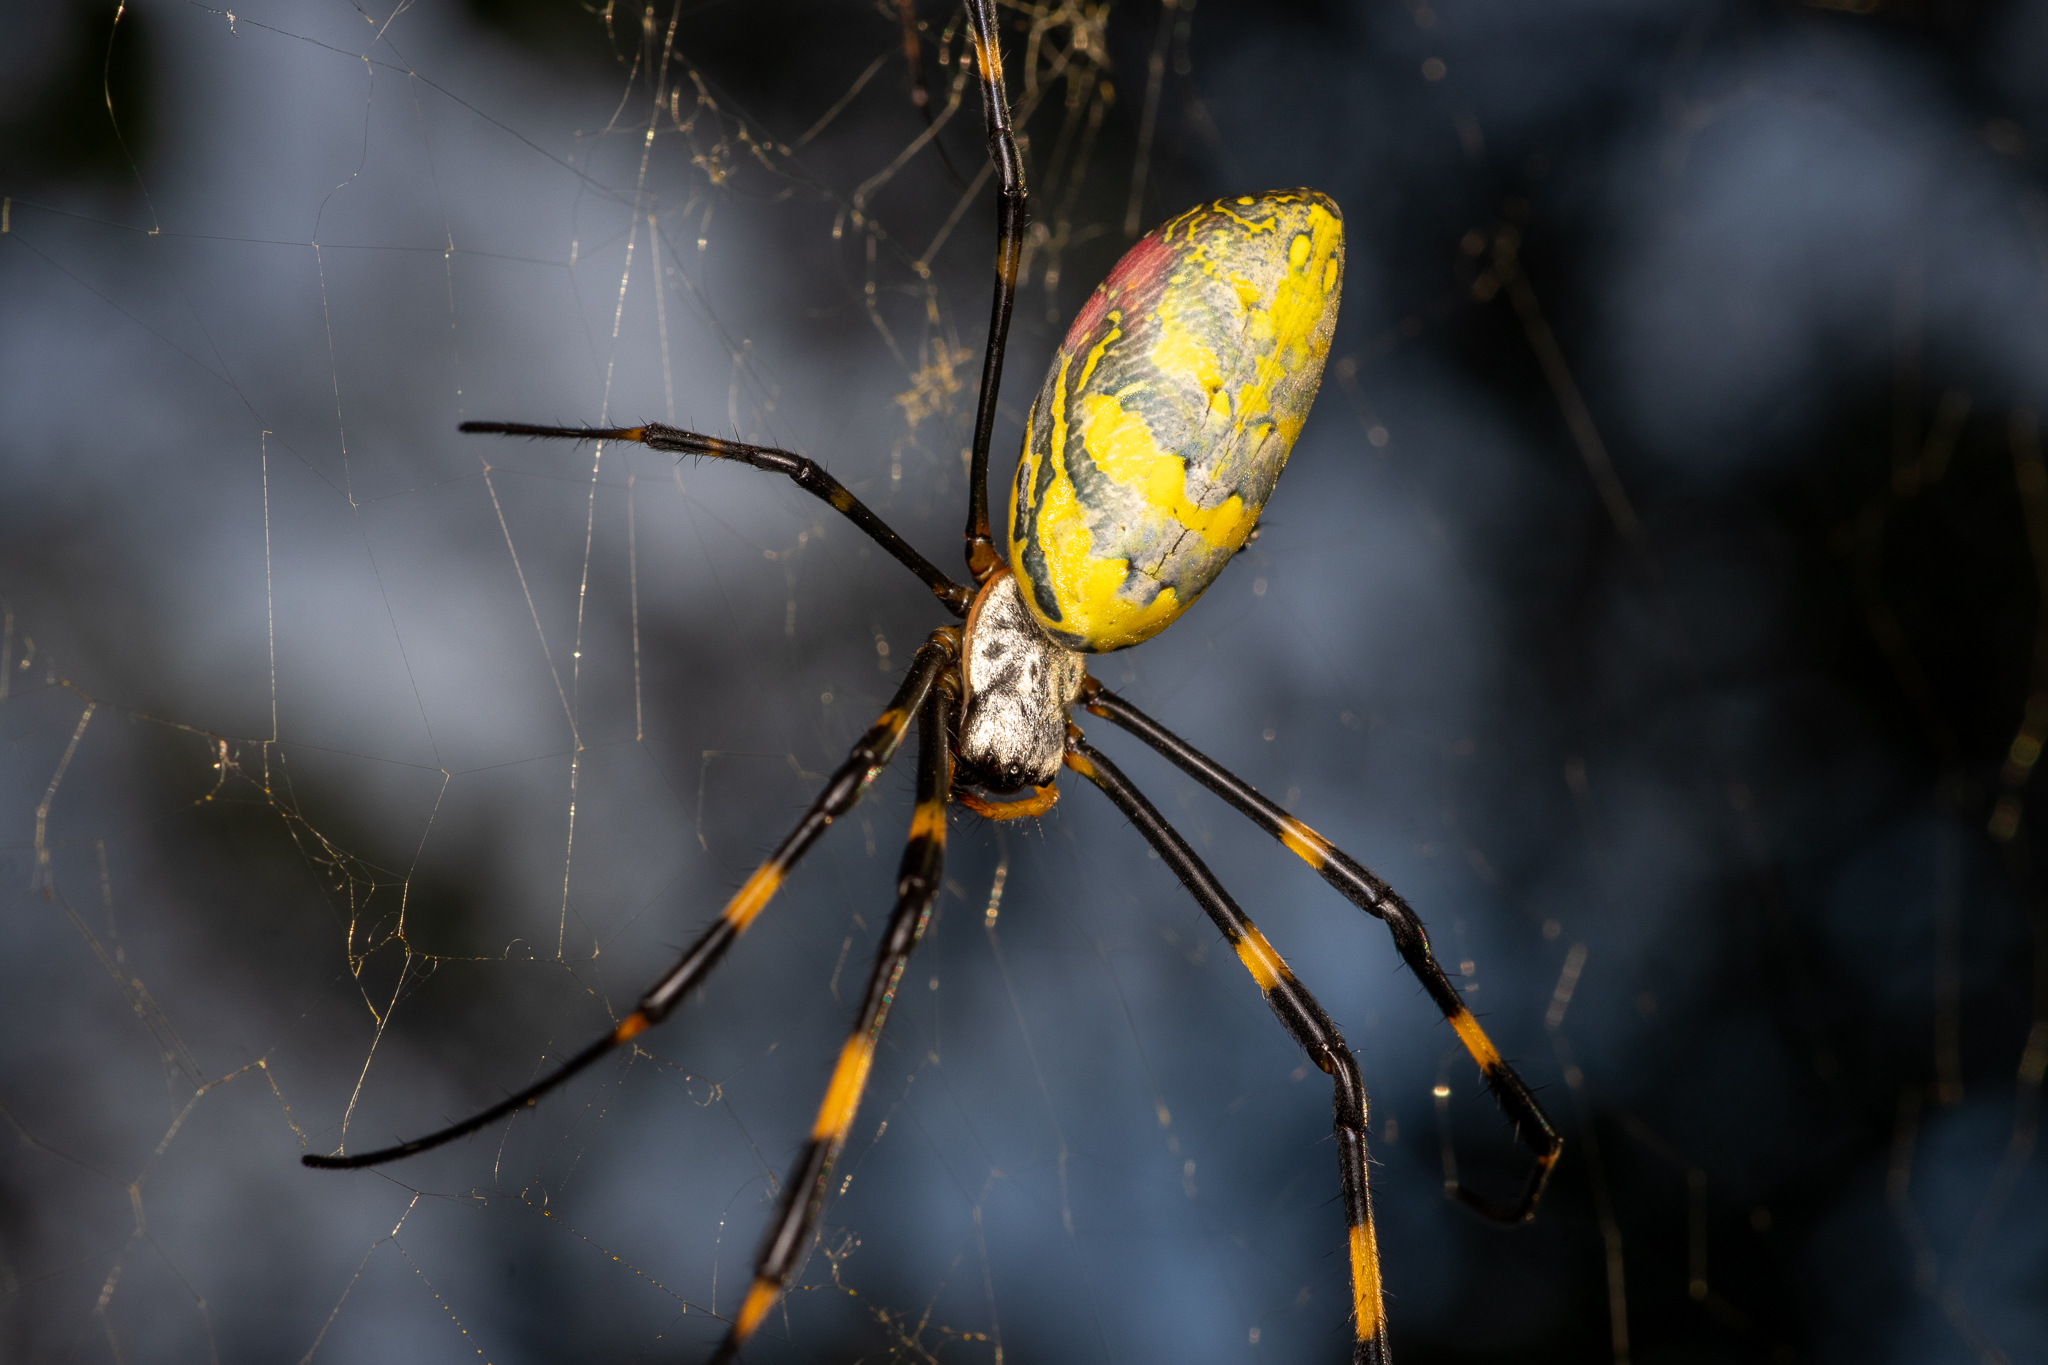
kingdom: Animalia
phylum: Arthropoda
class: Arachnida
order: Araneae
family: Araneidae
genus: Trichonephila
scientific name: Trichonephila clavata
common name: Jorō spider
